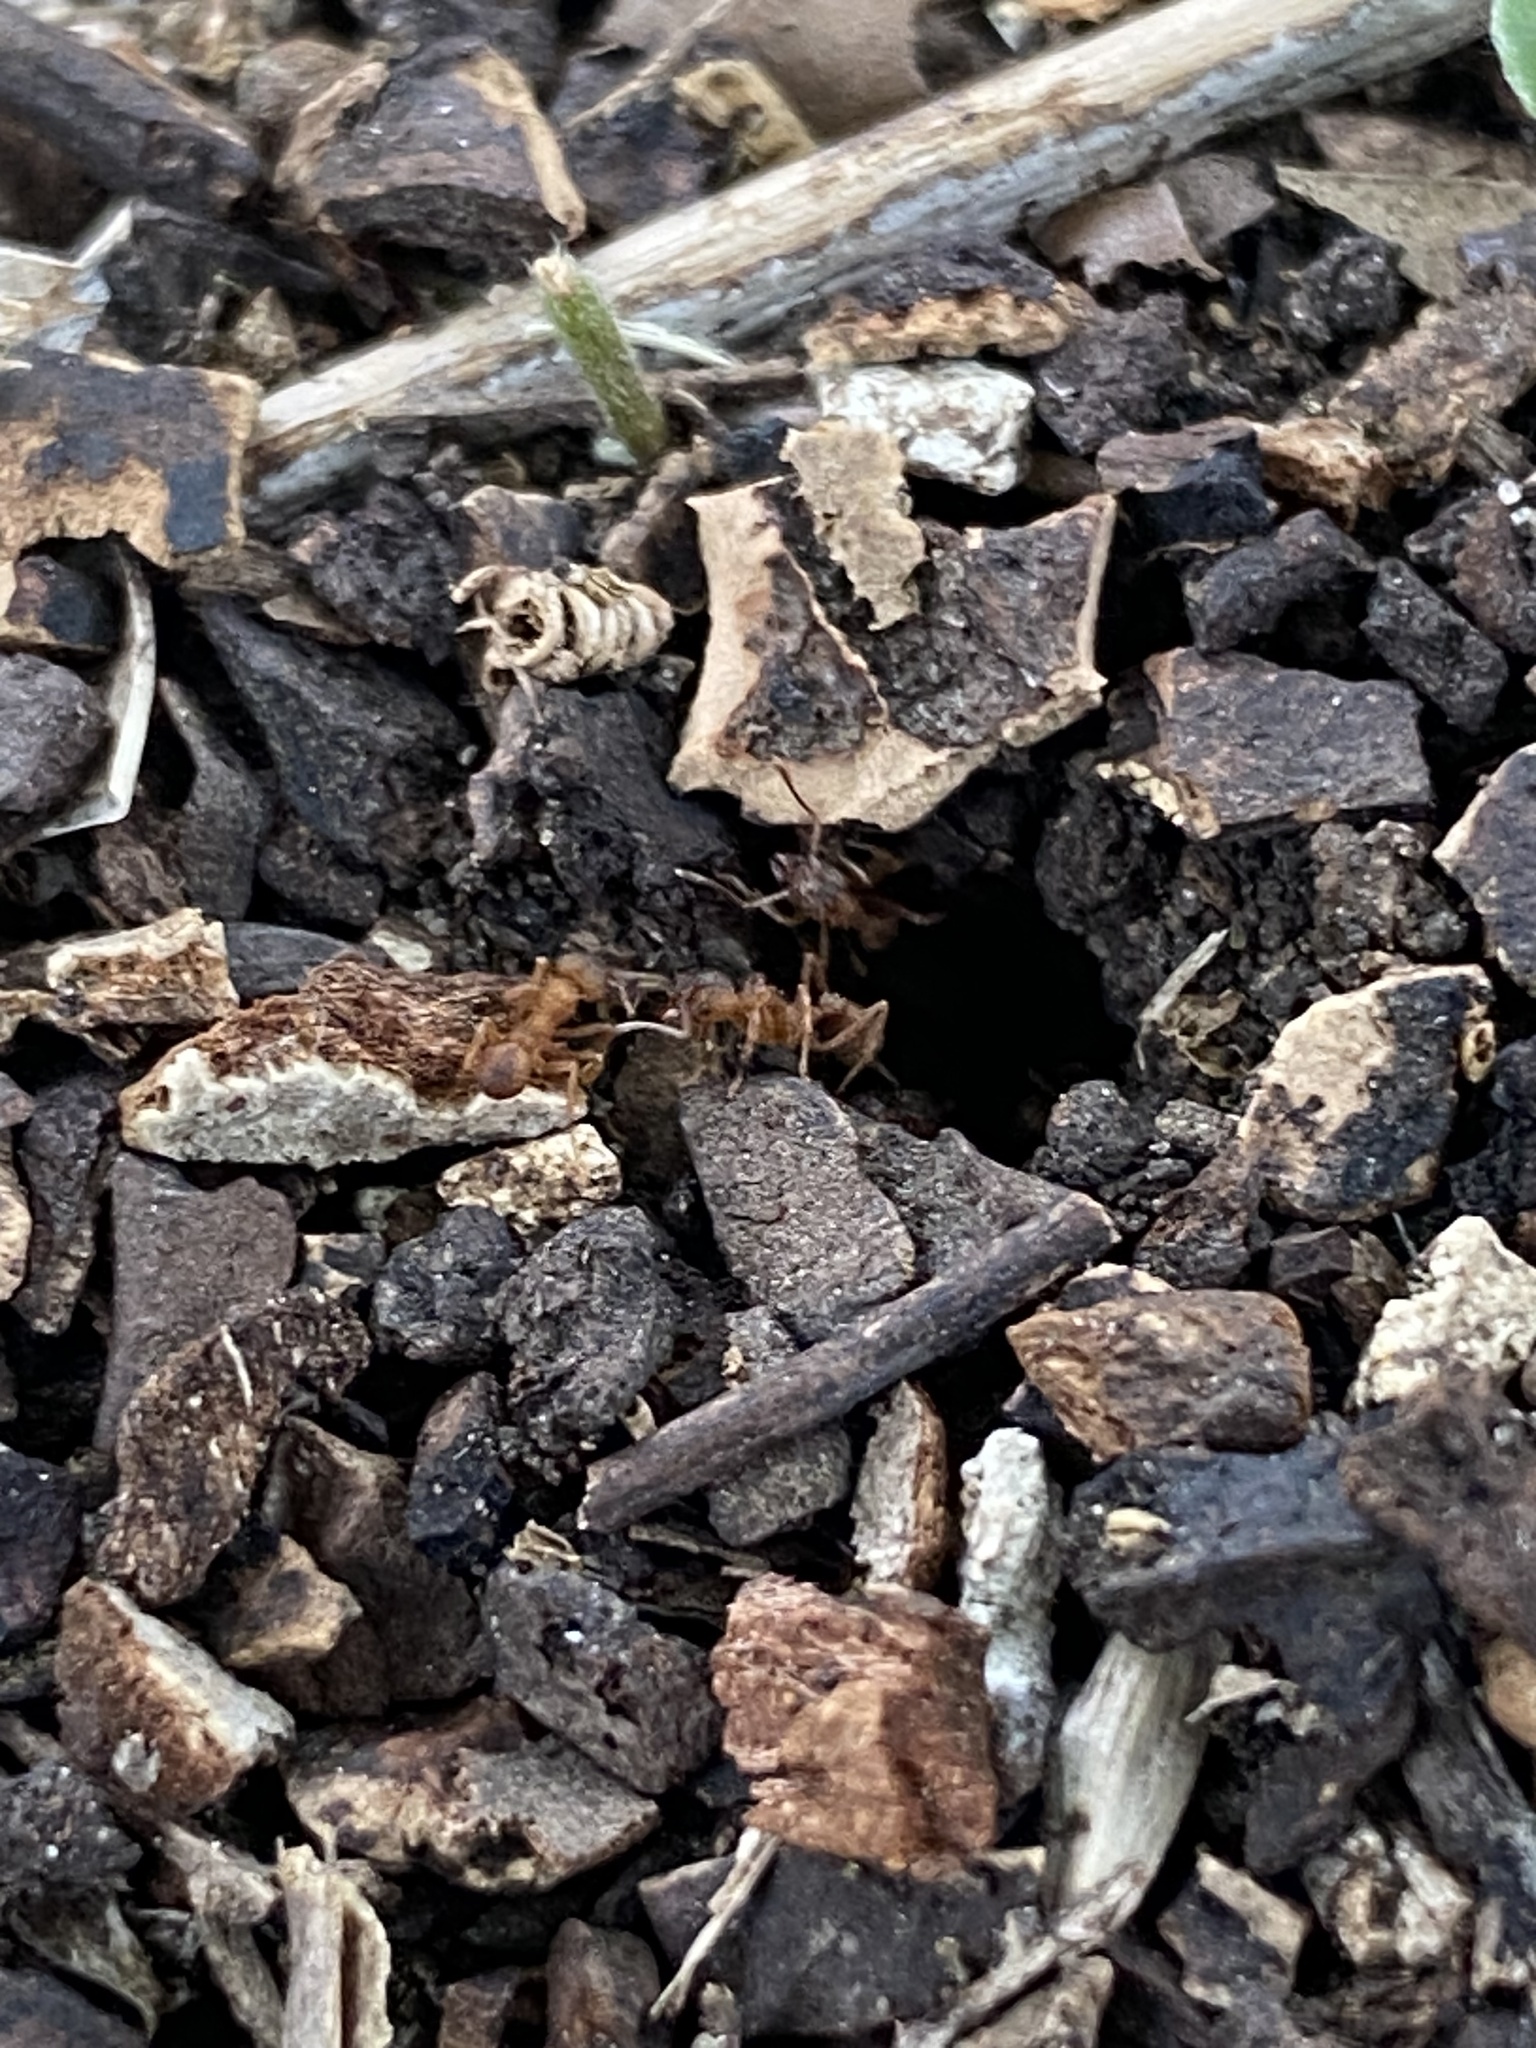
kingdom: Animalia
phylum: Arthropoda
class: Insecta
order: Hymenoptera
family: Formicidae
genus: Trachymyrmex
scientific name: Trachymyrmex septentrionalis
